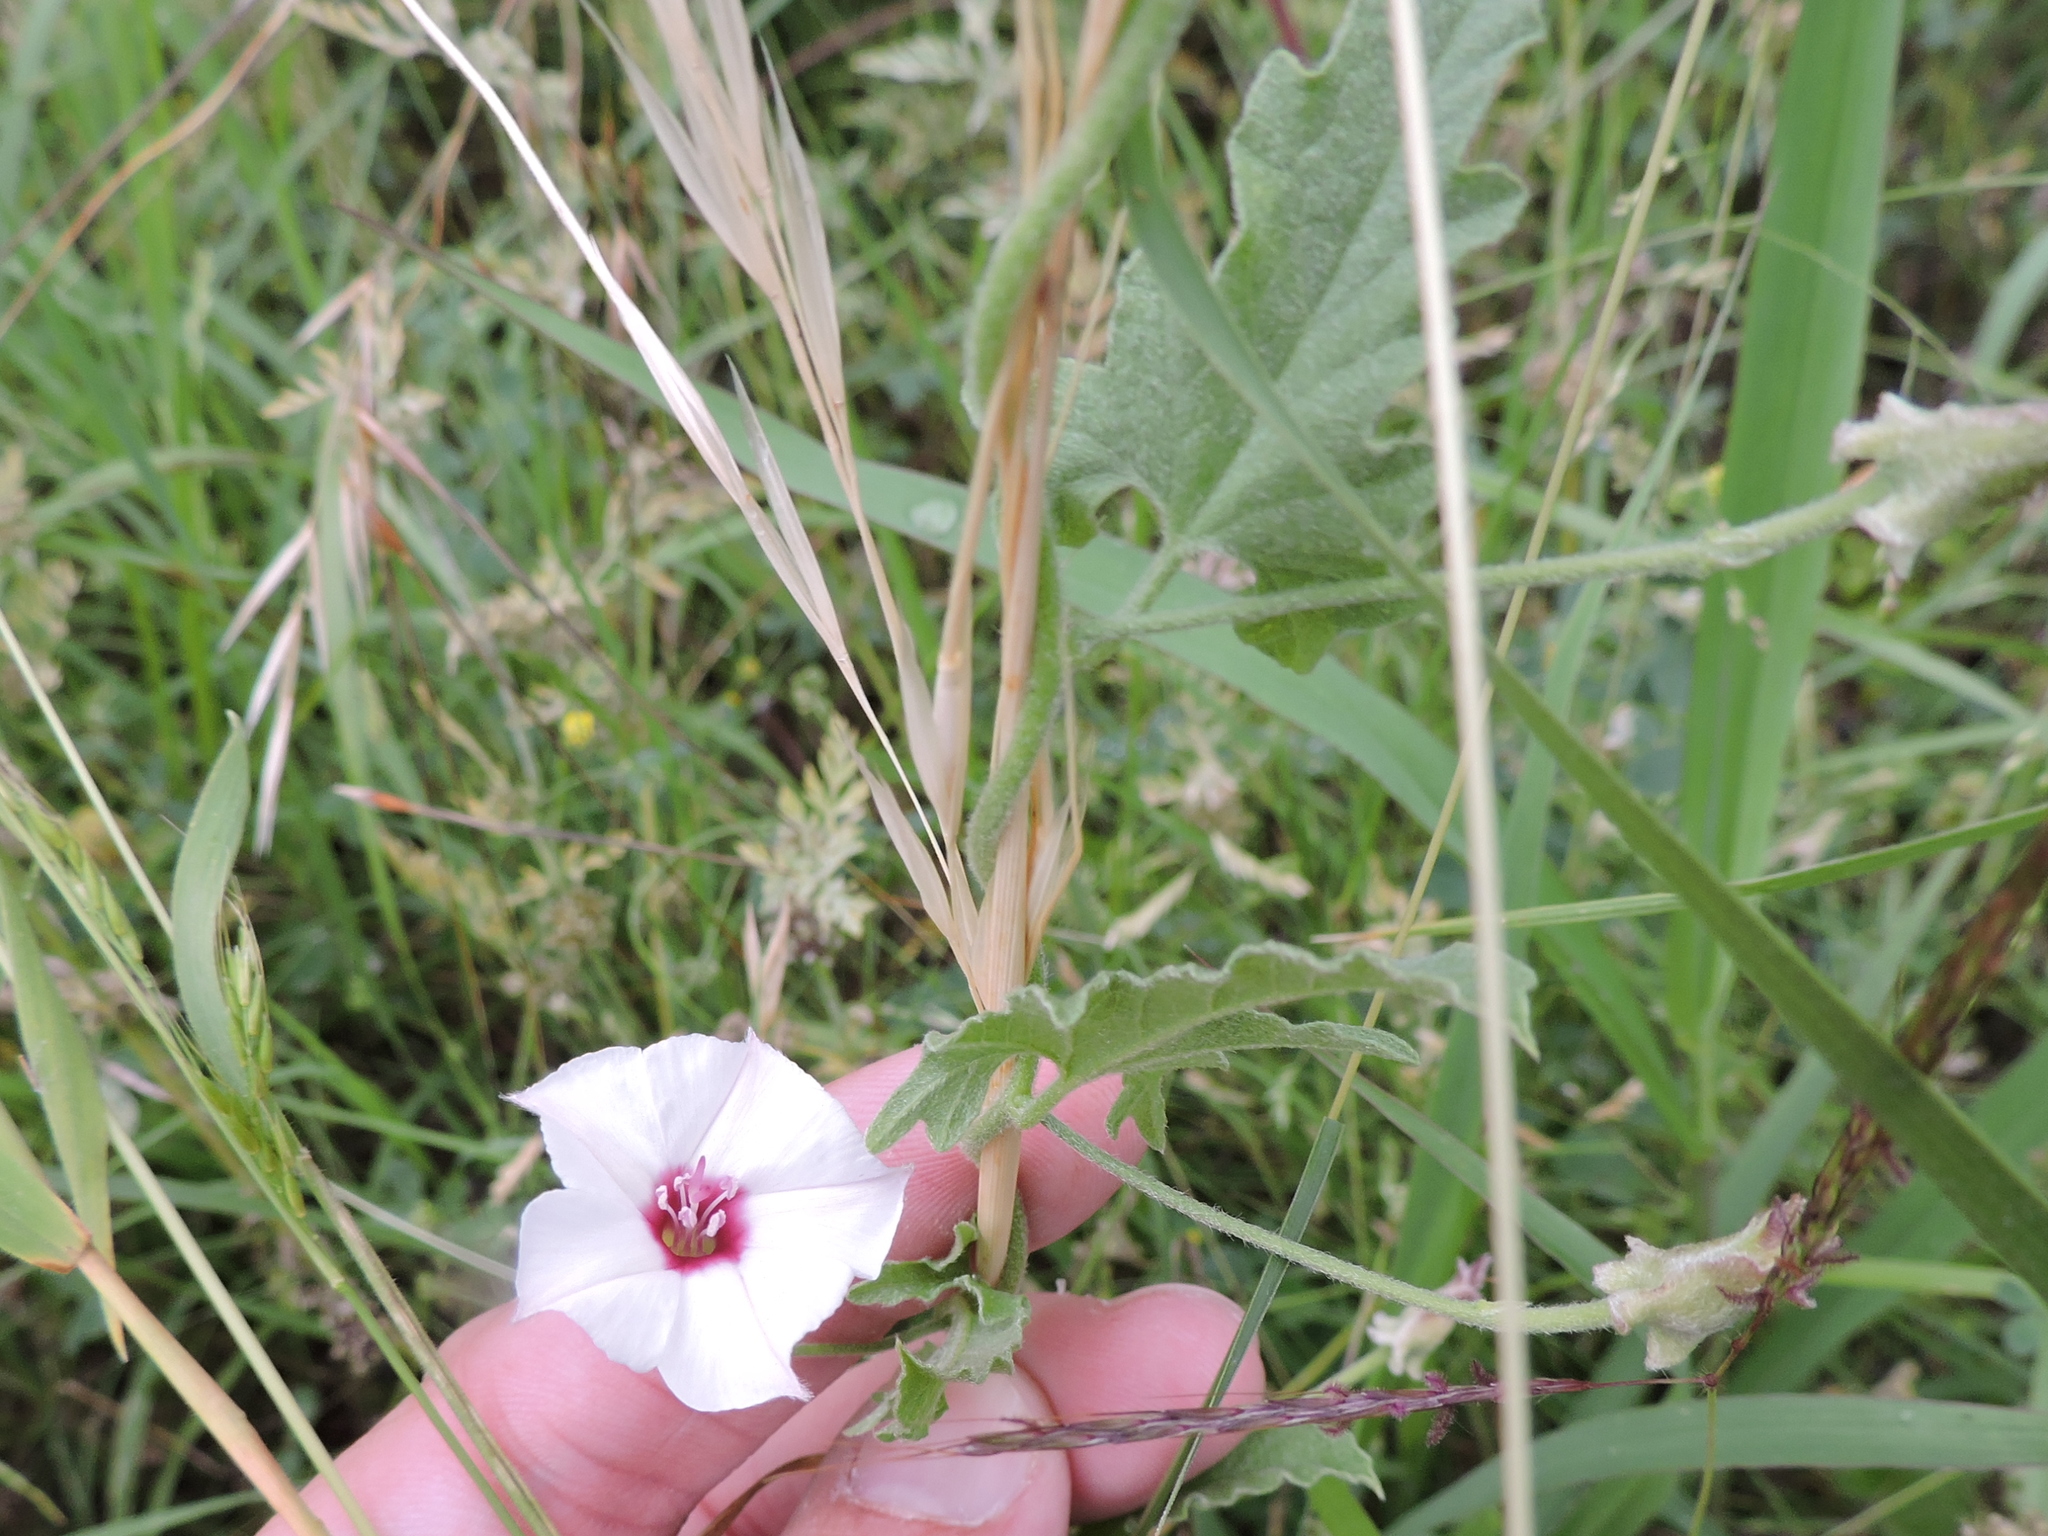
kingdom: Plantae
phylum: Tracheophyta
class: Magnoliopsida
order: Solanales
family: Convolvulaceae
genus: Convolvulus
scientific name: Convolvulus equitans
